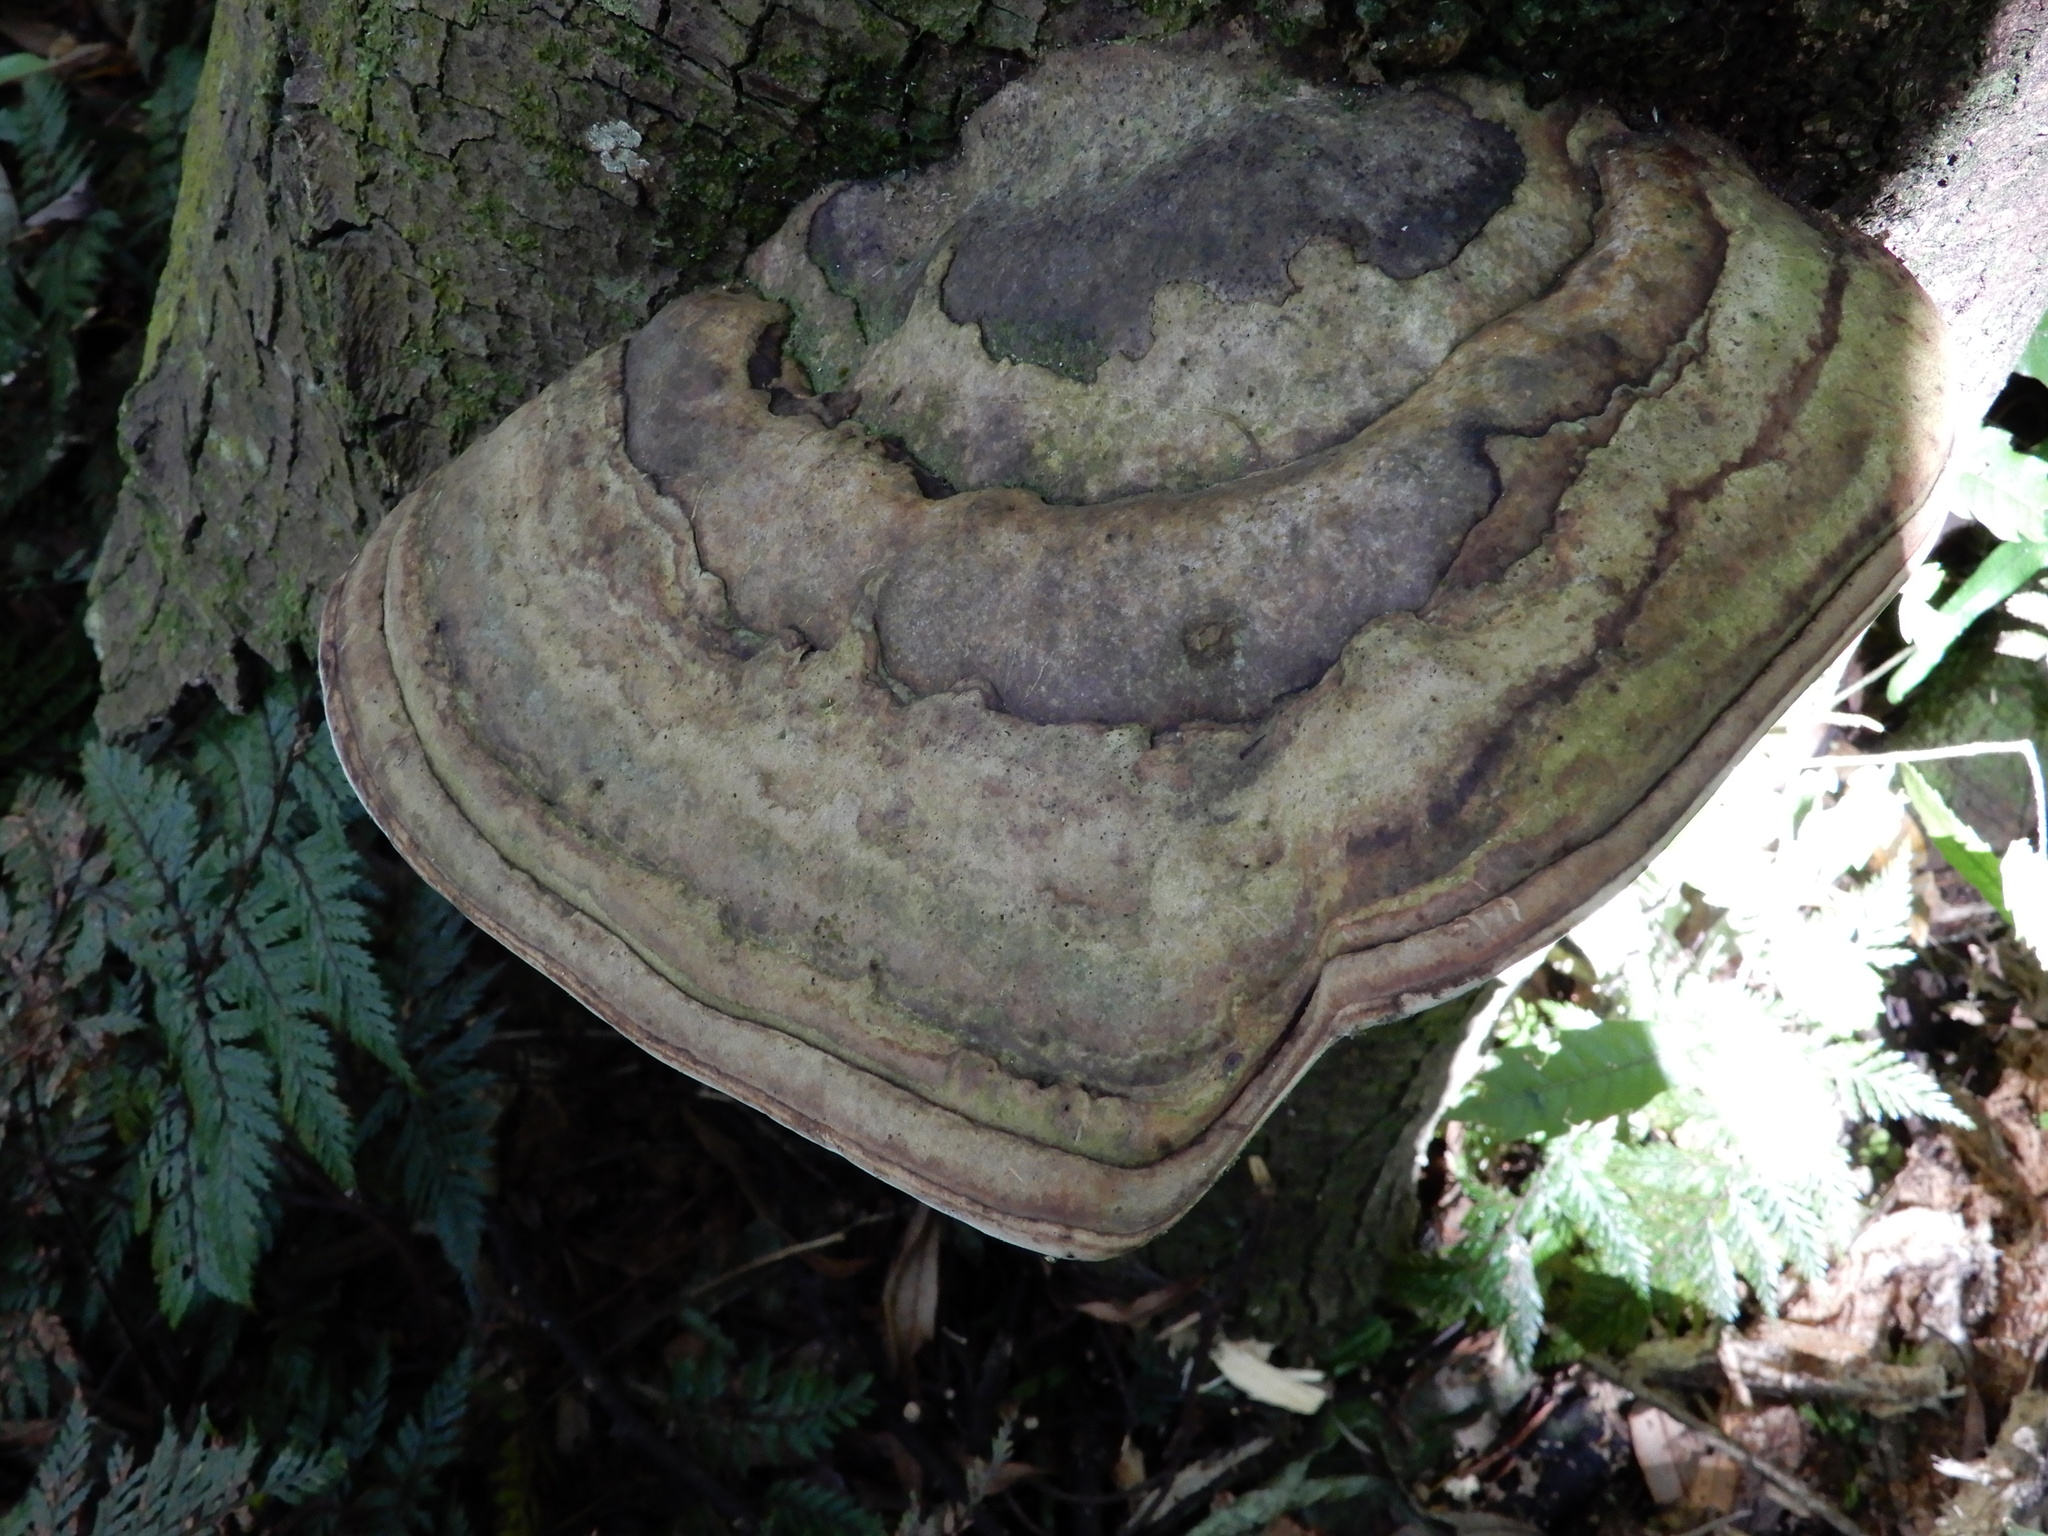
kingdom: Fungi
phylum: Basidiomycota
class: Agaricomycetes
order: Polyporales
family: Fomitopsidaceae
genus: Pilatoporus
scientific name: Pilatoporus hemitephrus
